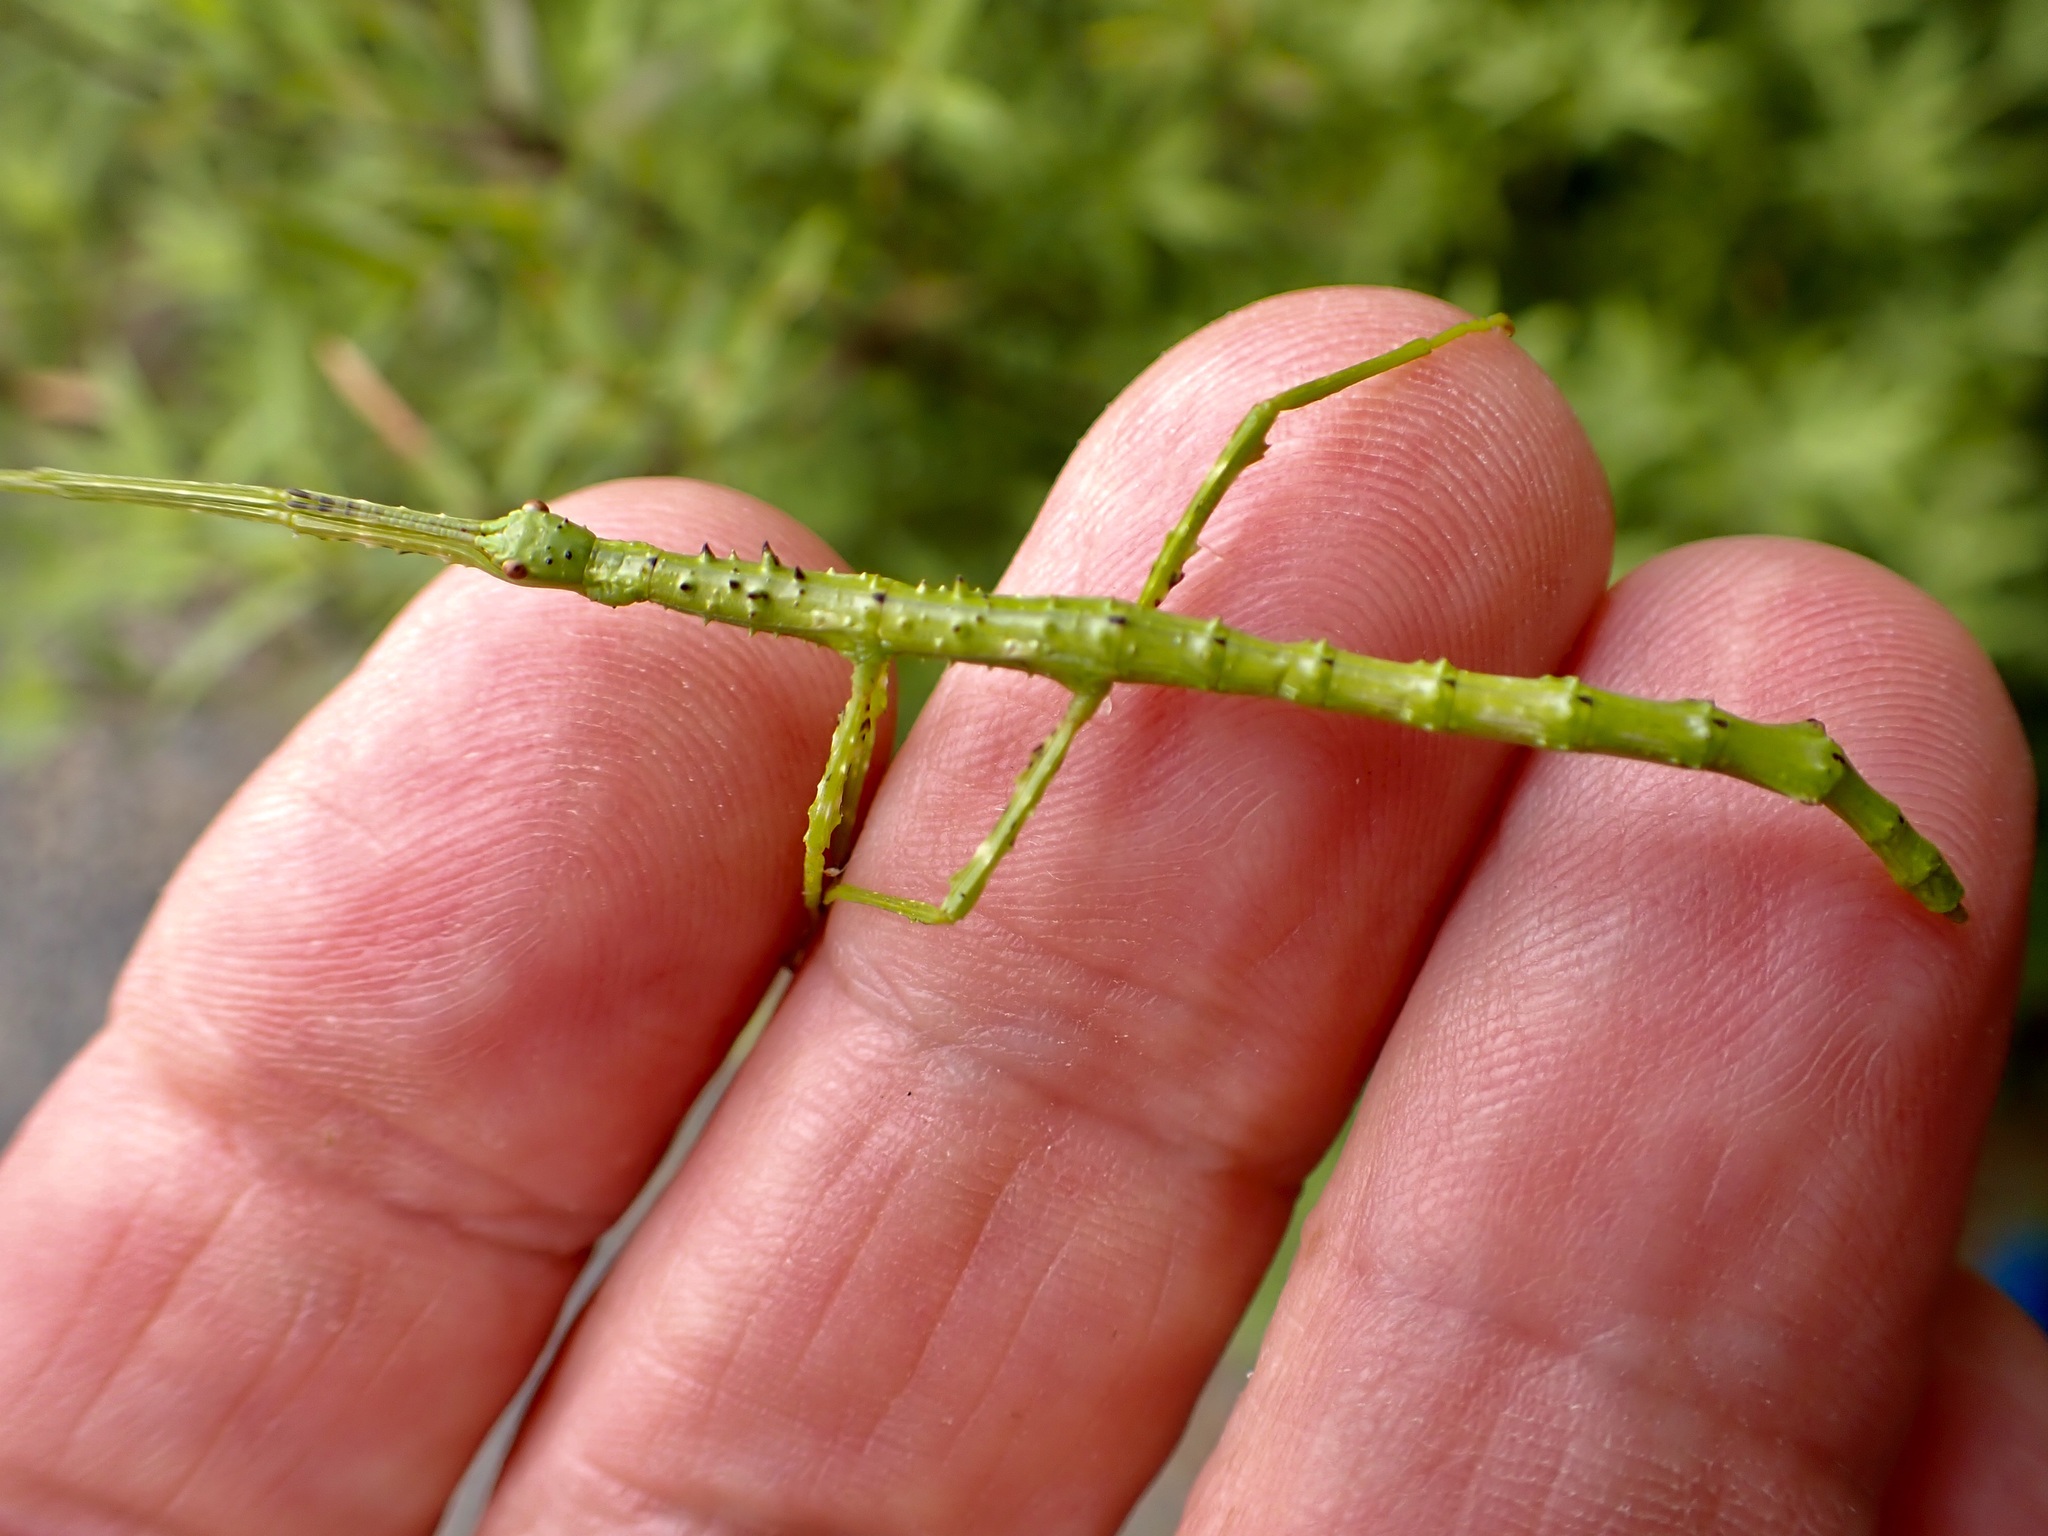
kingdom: Animalia
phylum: Arthropoda
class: Insecta
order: Phasmida
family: Phasmatidae
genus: Acanthoxyla
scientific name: Acanthoxyla prasina
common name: Black-spined stick insect
